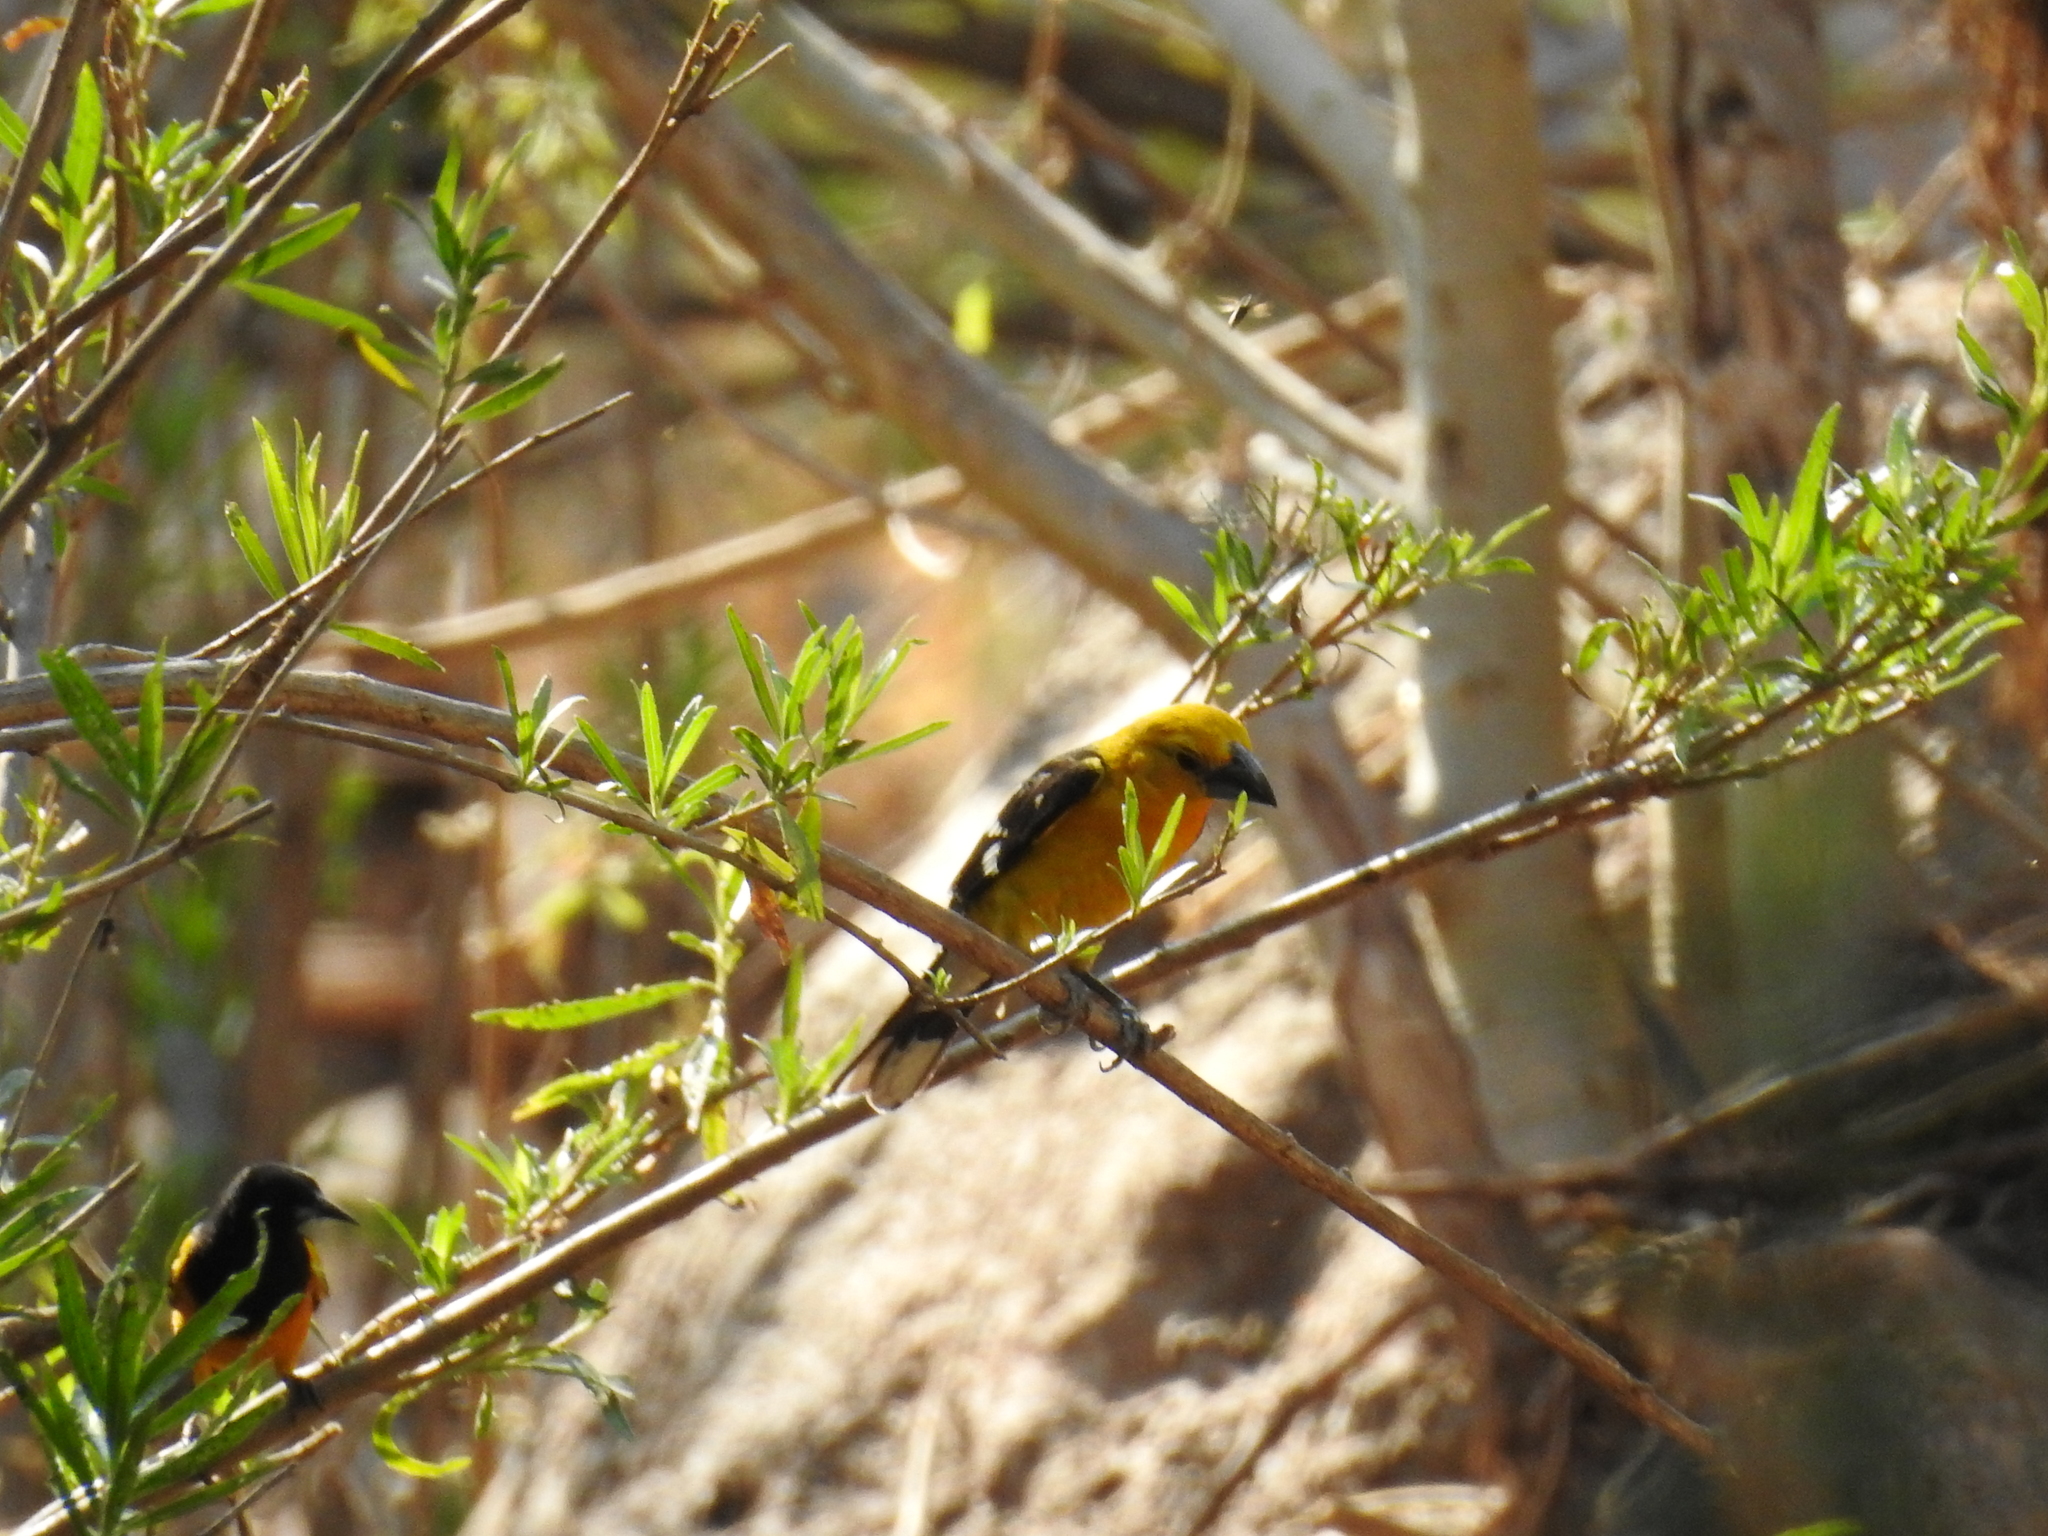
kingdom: Animalia
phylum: Chordata
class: Aves
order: Passeriformes
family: Icteridae
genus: Icterus
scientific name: Icterus wagleri
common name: Black-vented oriole
